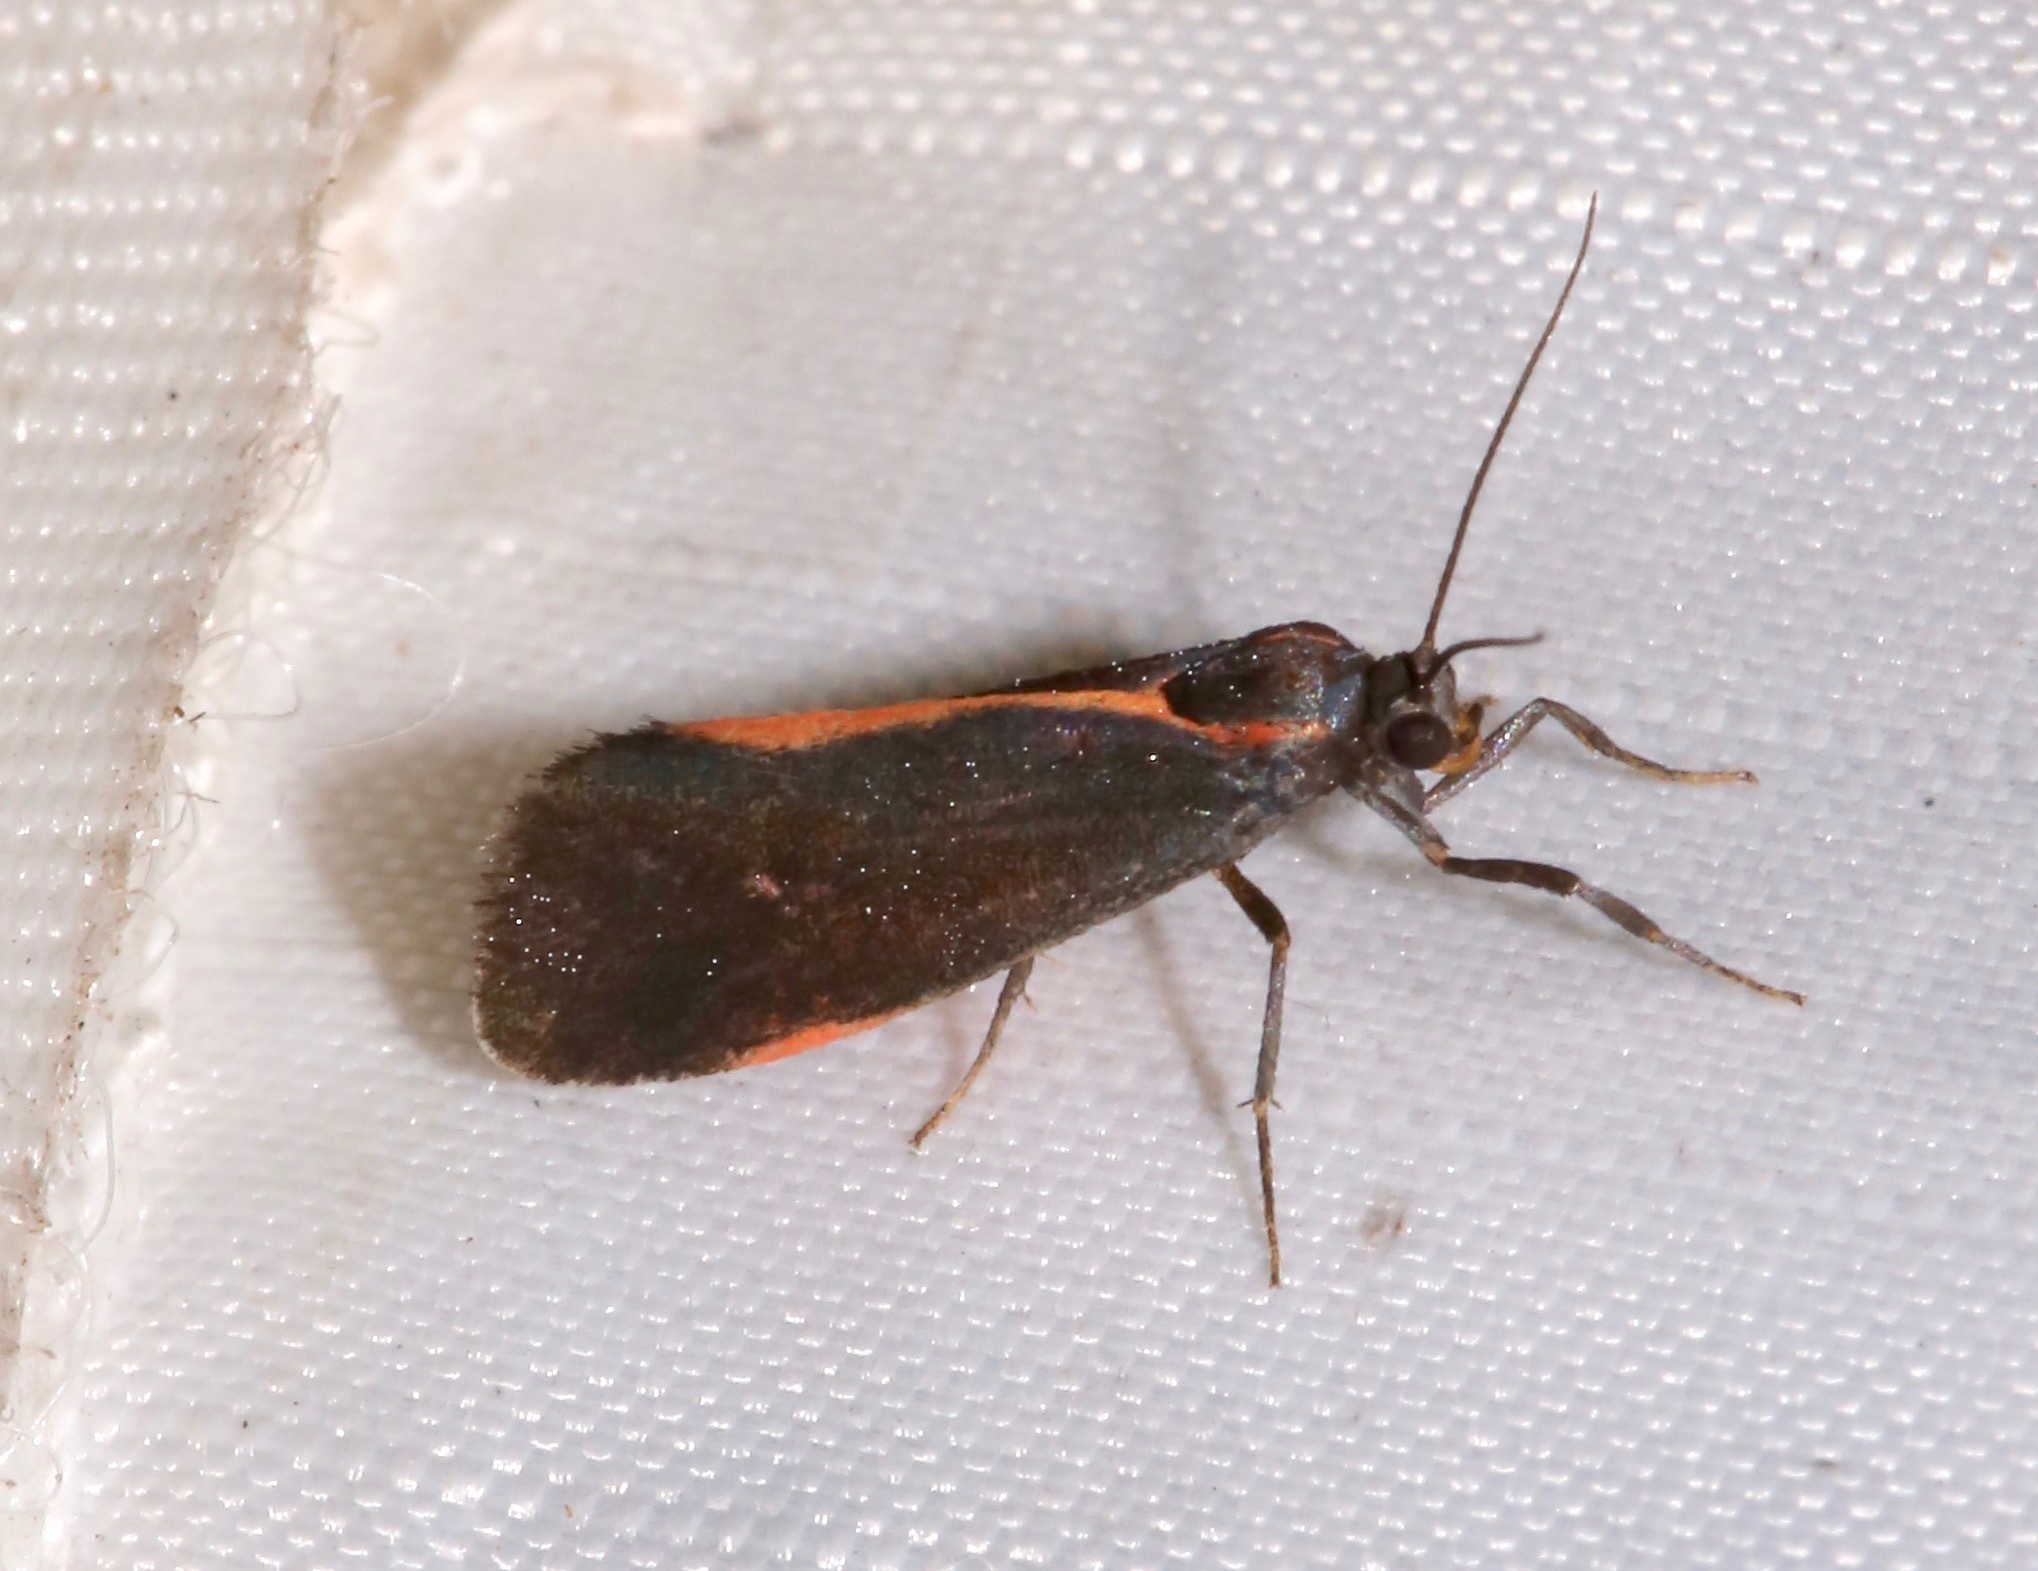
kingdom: Animalia
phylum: Arthropoda
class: Insecta
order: Lepidoptera
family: Erebidae
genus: Cisthene
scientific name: Cisthene juanita
